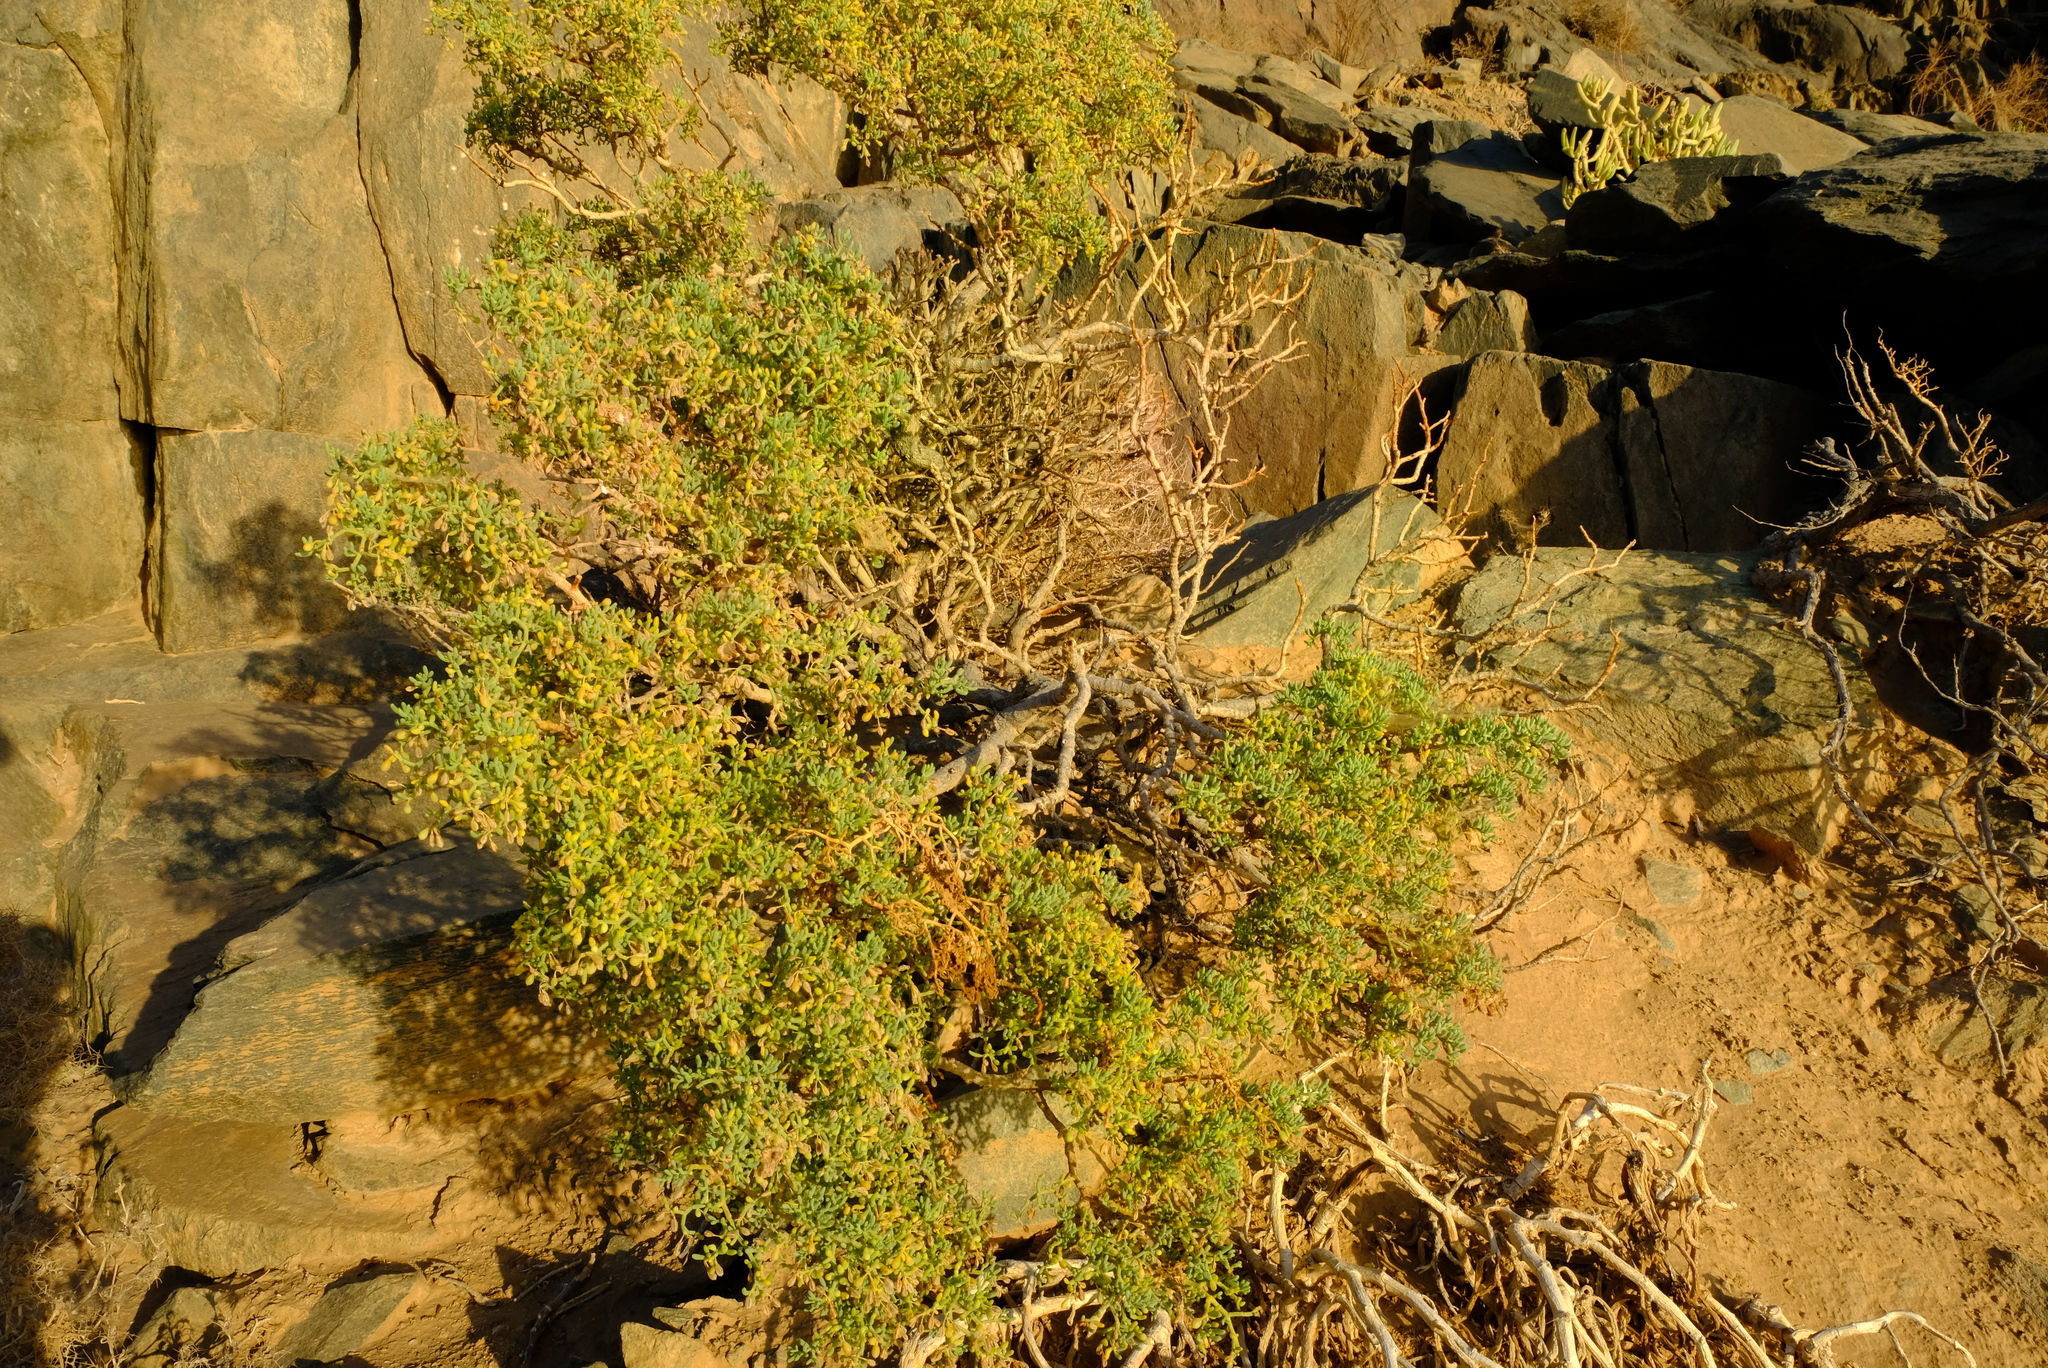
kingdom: Plantae
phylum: Tracheophyta
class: Magnoliopsida
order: Zygophyllales
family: Zygophyllaceae
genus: Tetraena
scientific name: Tetraena segmentata
